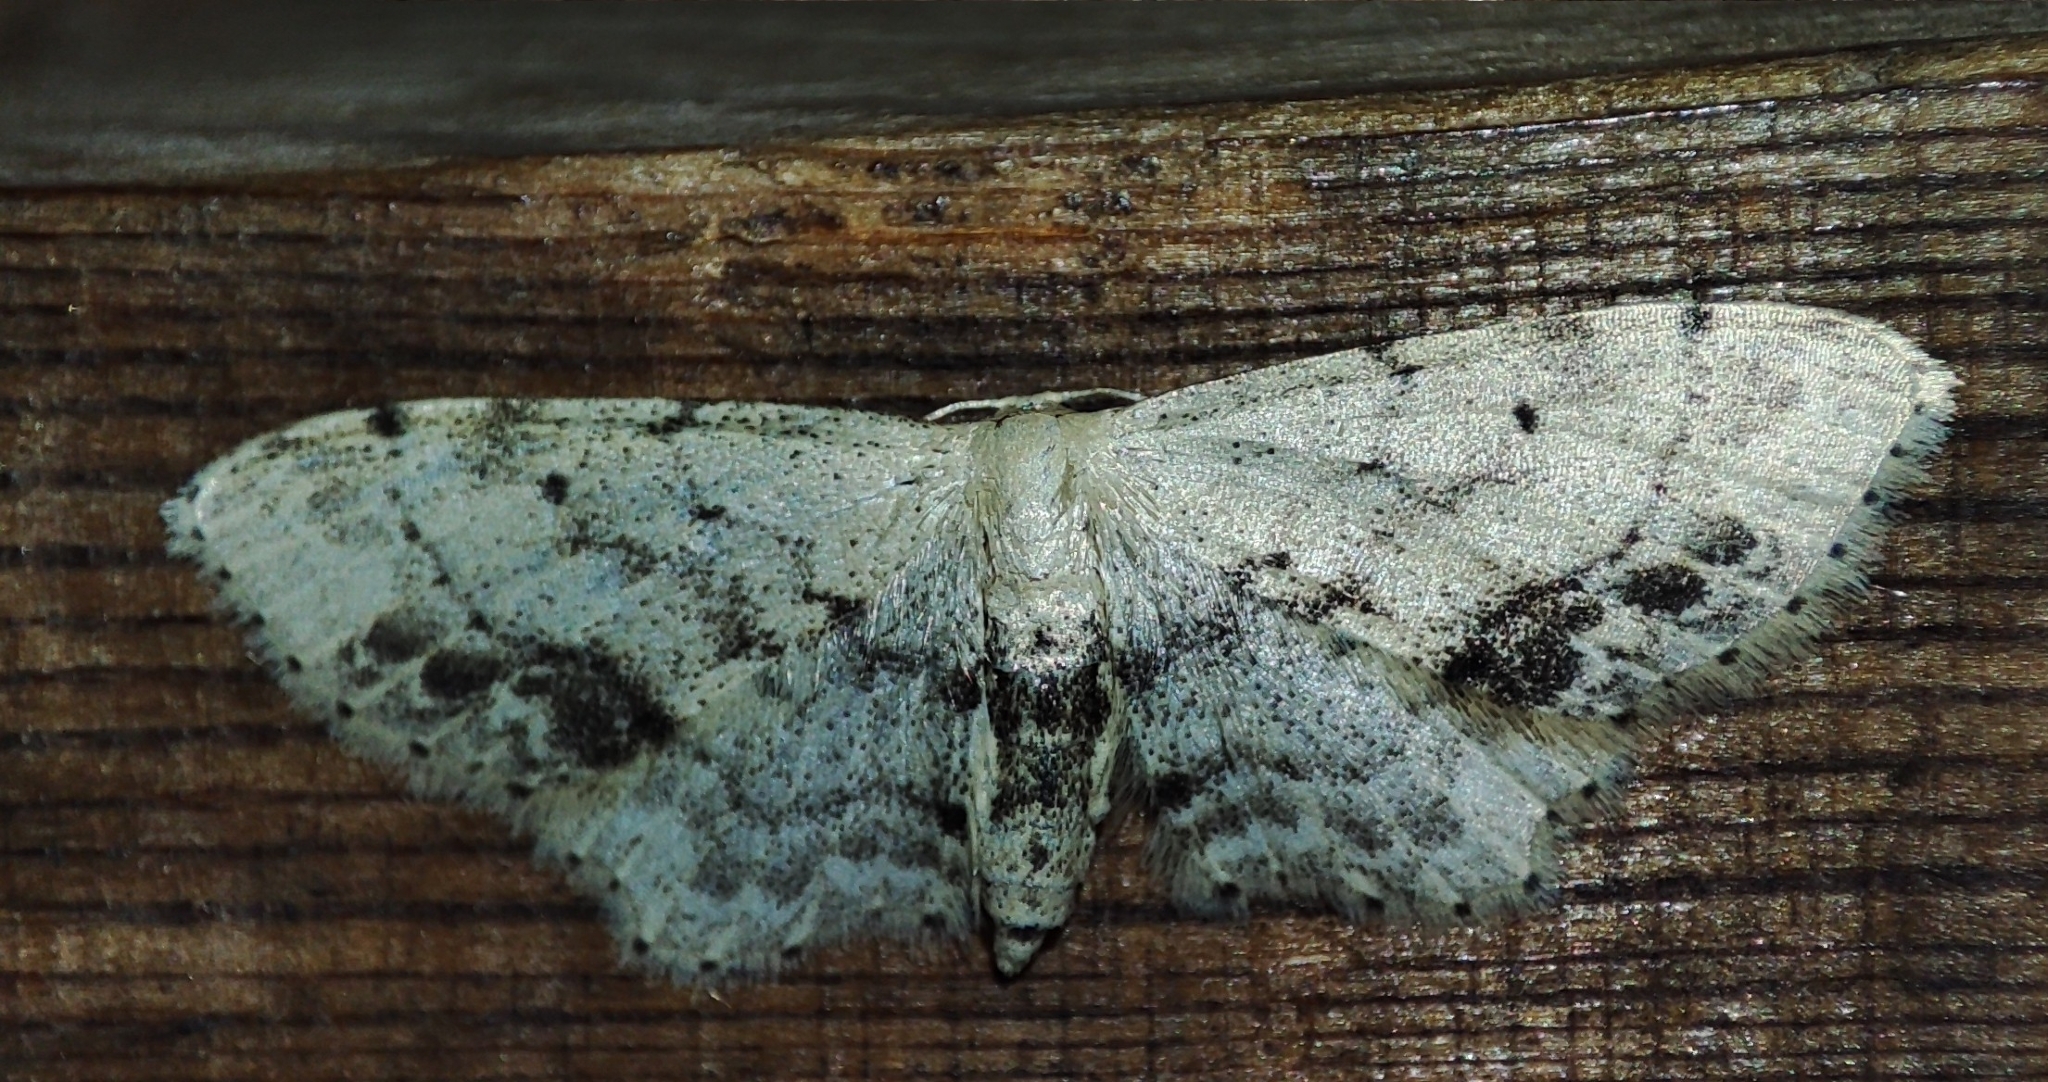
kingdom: Animalia
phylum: Arthropoda
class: Insecta
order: Lepidoptera
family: Geometridae
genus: Idaea
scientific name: Idaea dimidiata
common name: Single-dotted wave
